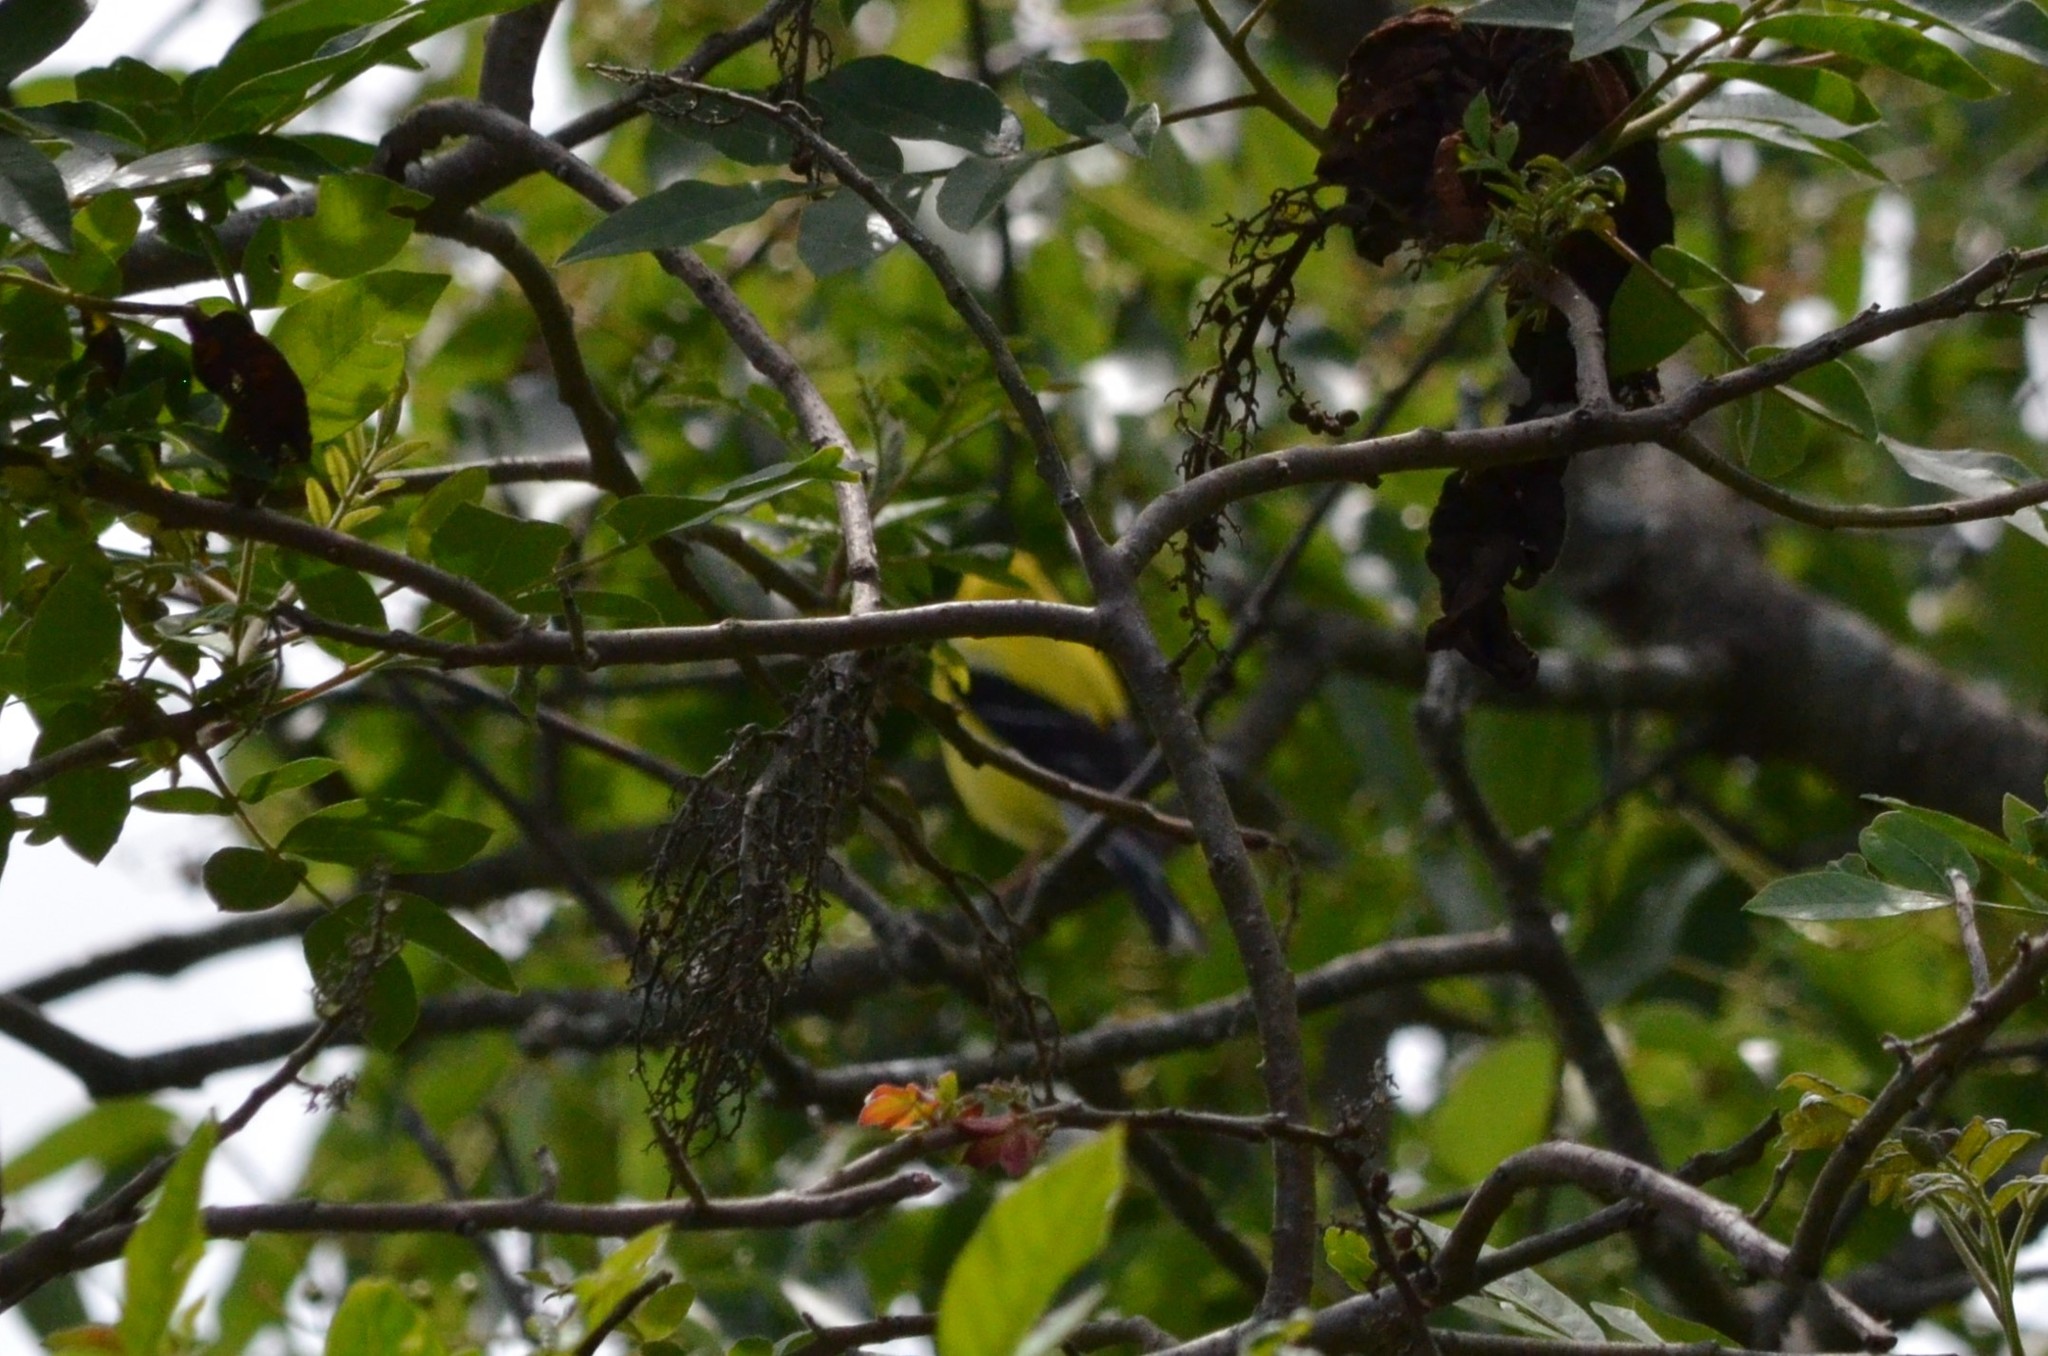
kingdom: Animalia
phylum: Chordata
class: Aves
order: Passeriformes
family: Fringillidae
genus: Spinus
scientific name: Spinus tristis
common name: American goldfinch
